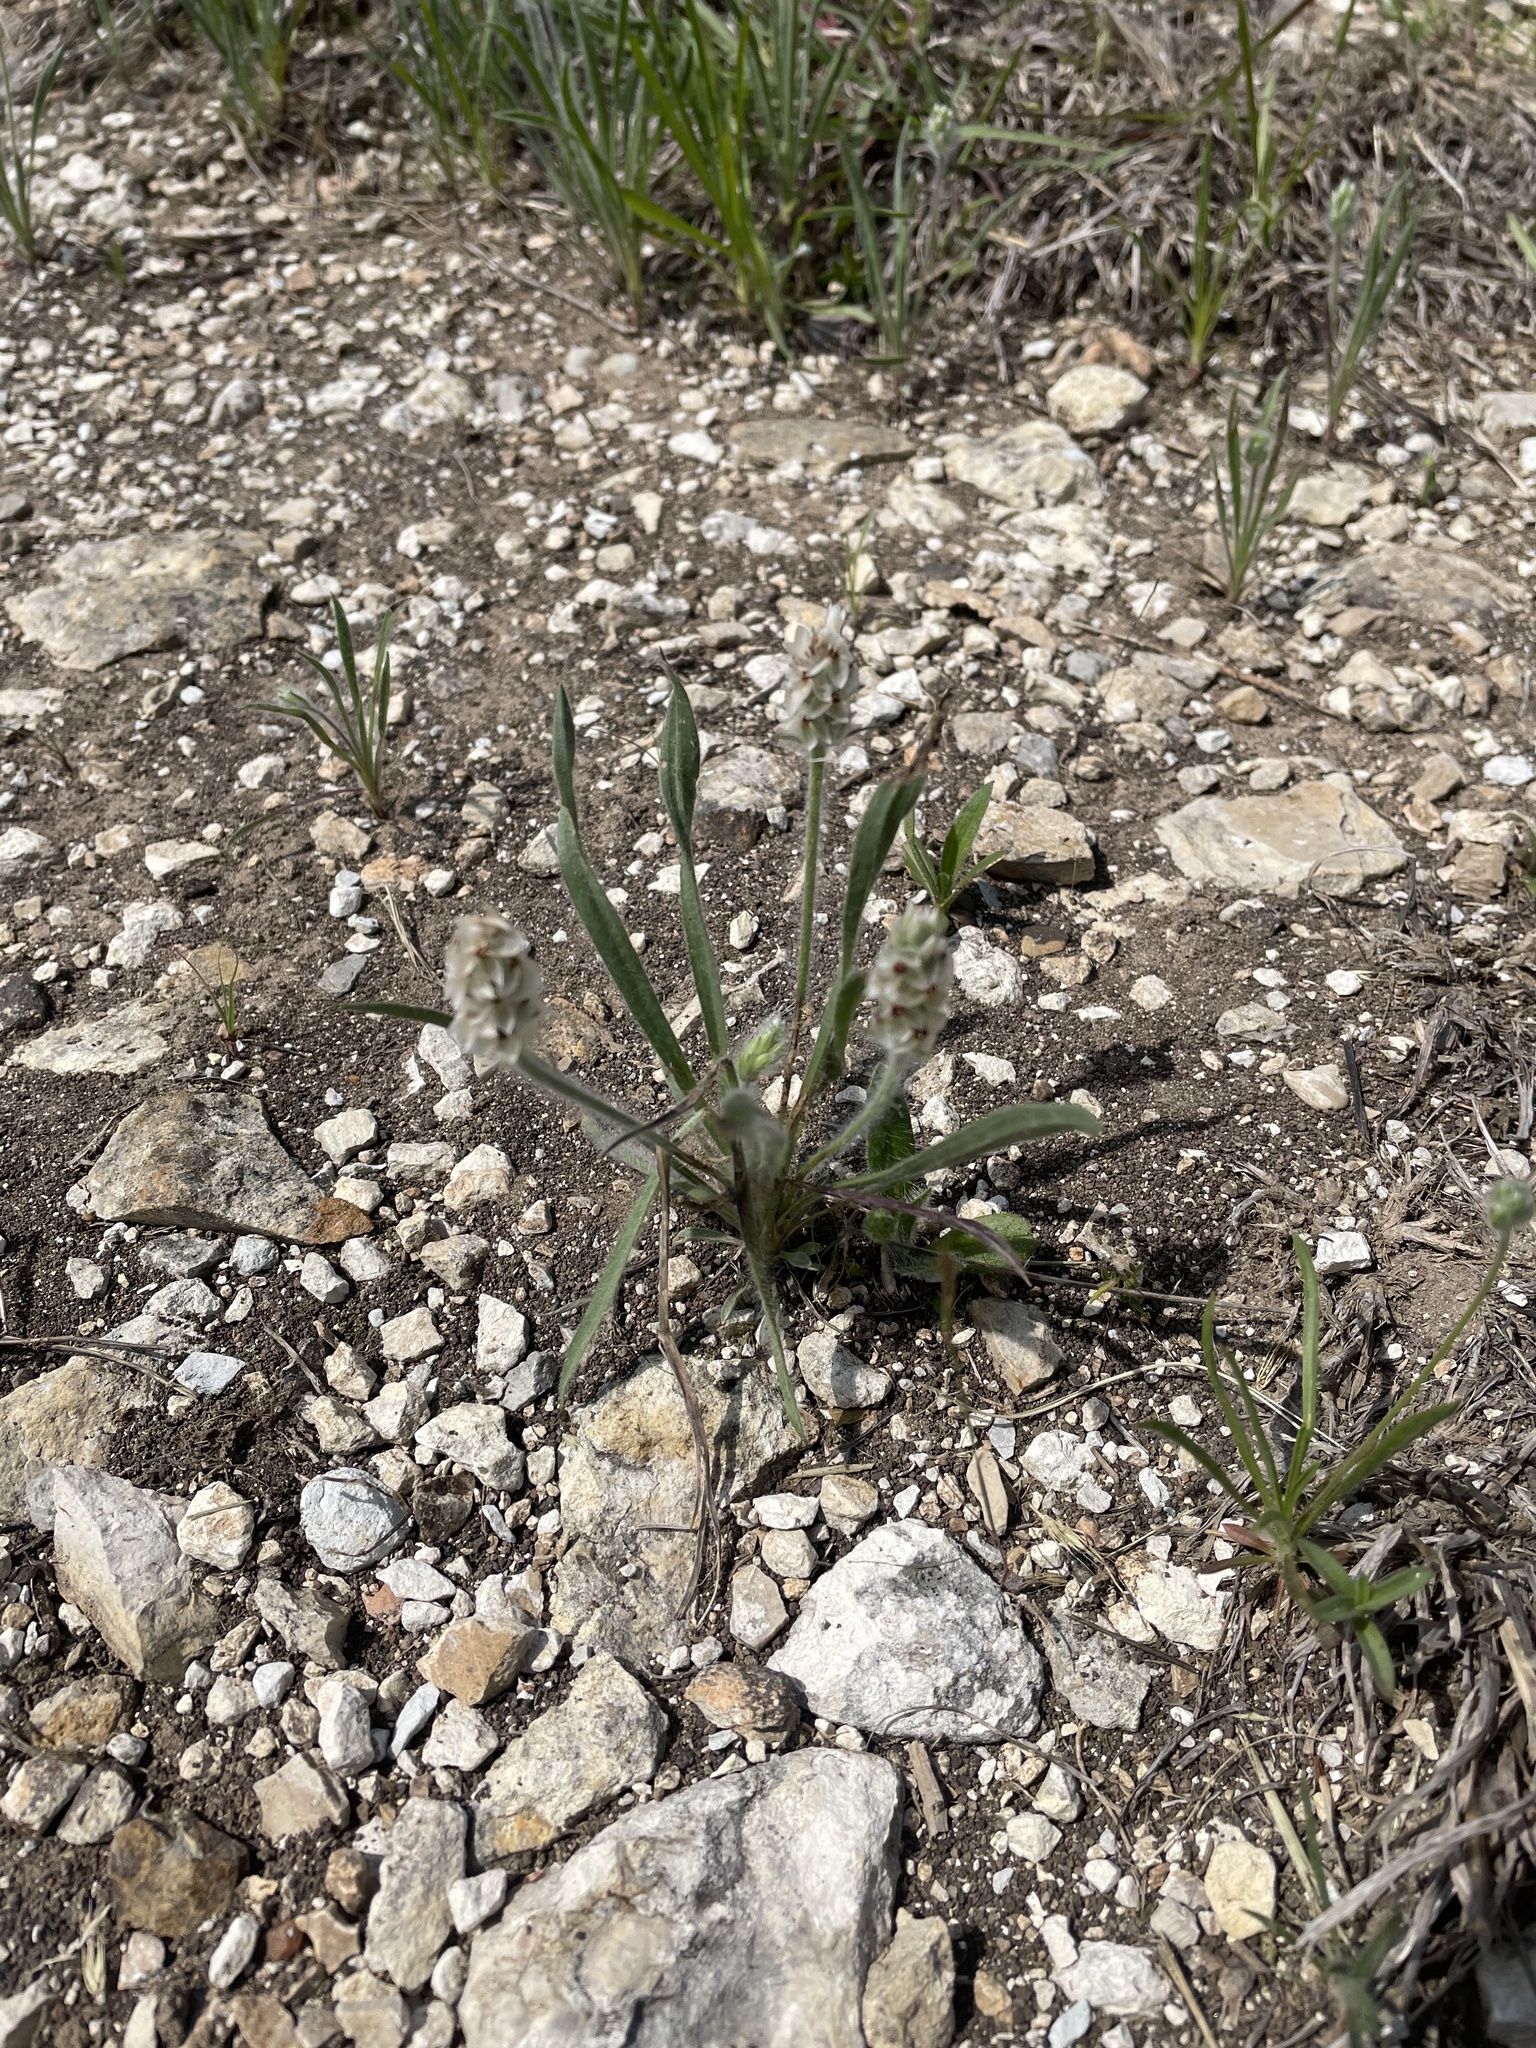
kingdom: Plantae
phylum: Tracheophyta
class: Magnoliopsida
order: Lamiales
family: Plantaginaceae
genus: Plantago
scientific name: Plantago helleri
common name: Heller's plantain
